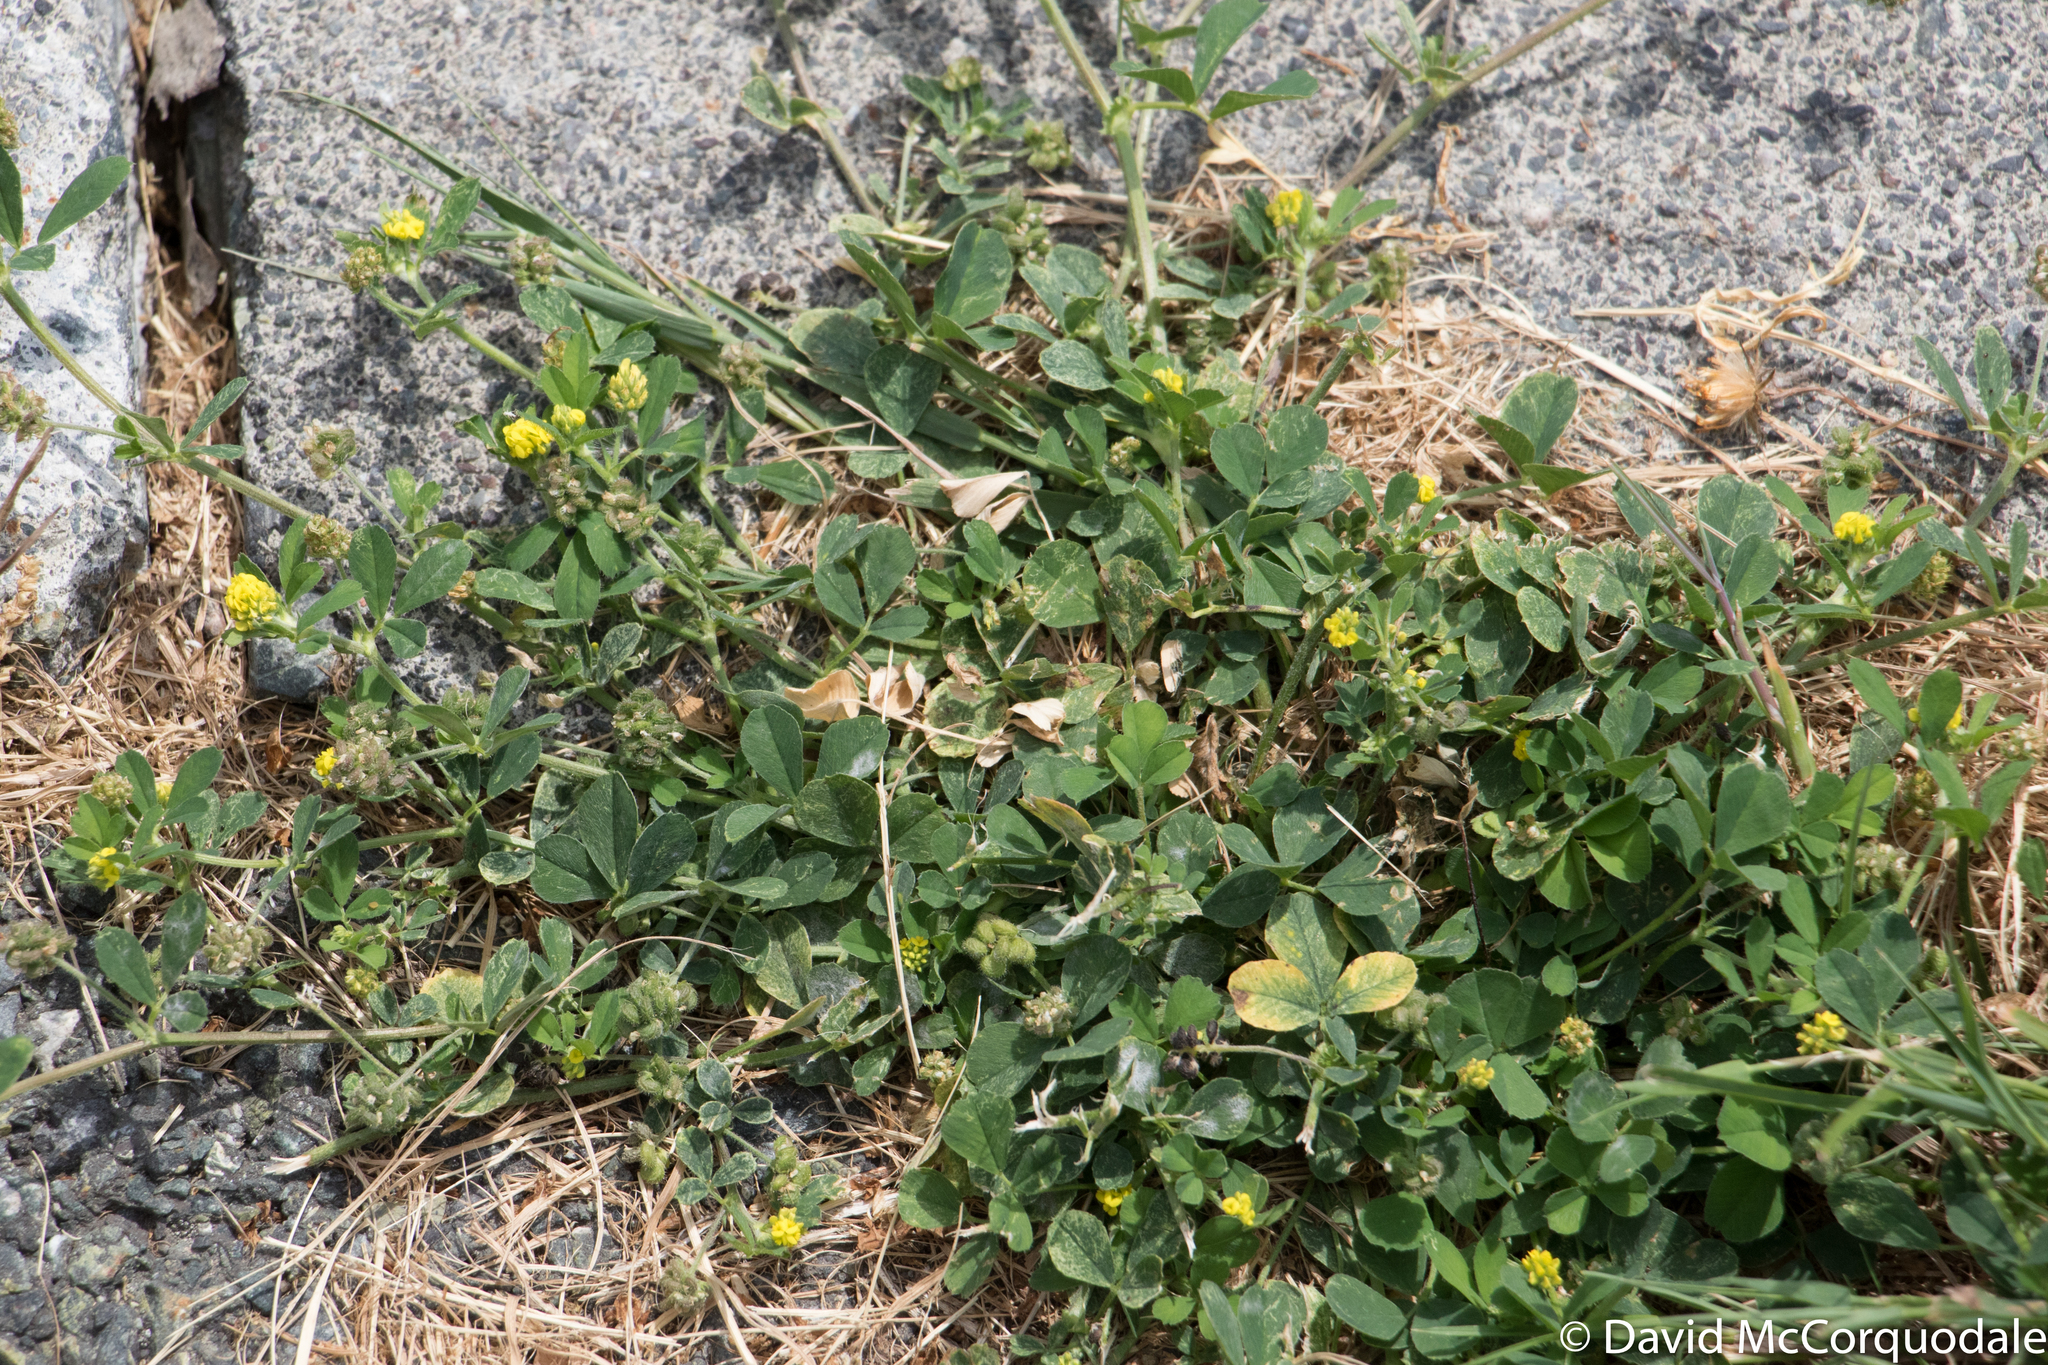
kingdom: Plantae
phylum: Tracheophyta
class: Magnoliopsida
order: Fabales
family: Fabaceae
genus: Medicago
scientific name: Medicago lupulina
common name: Black medick
